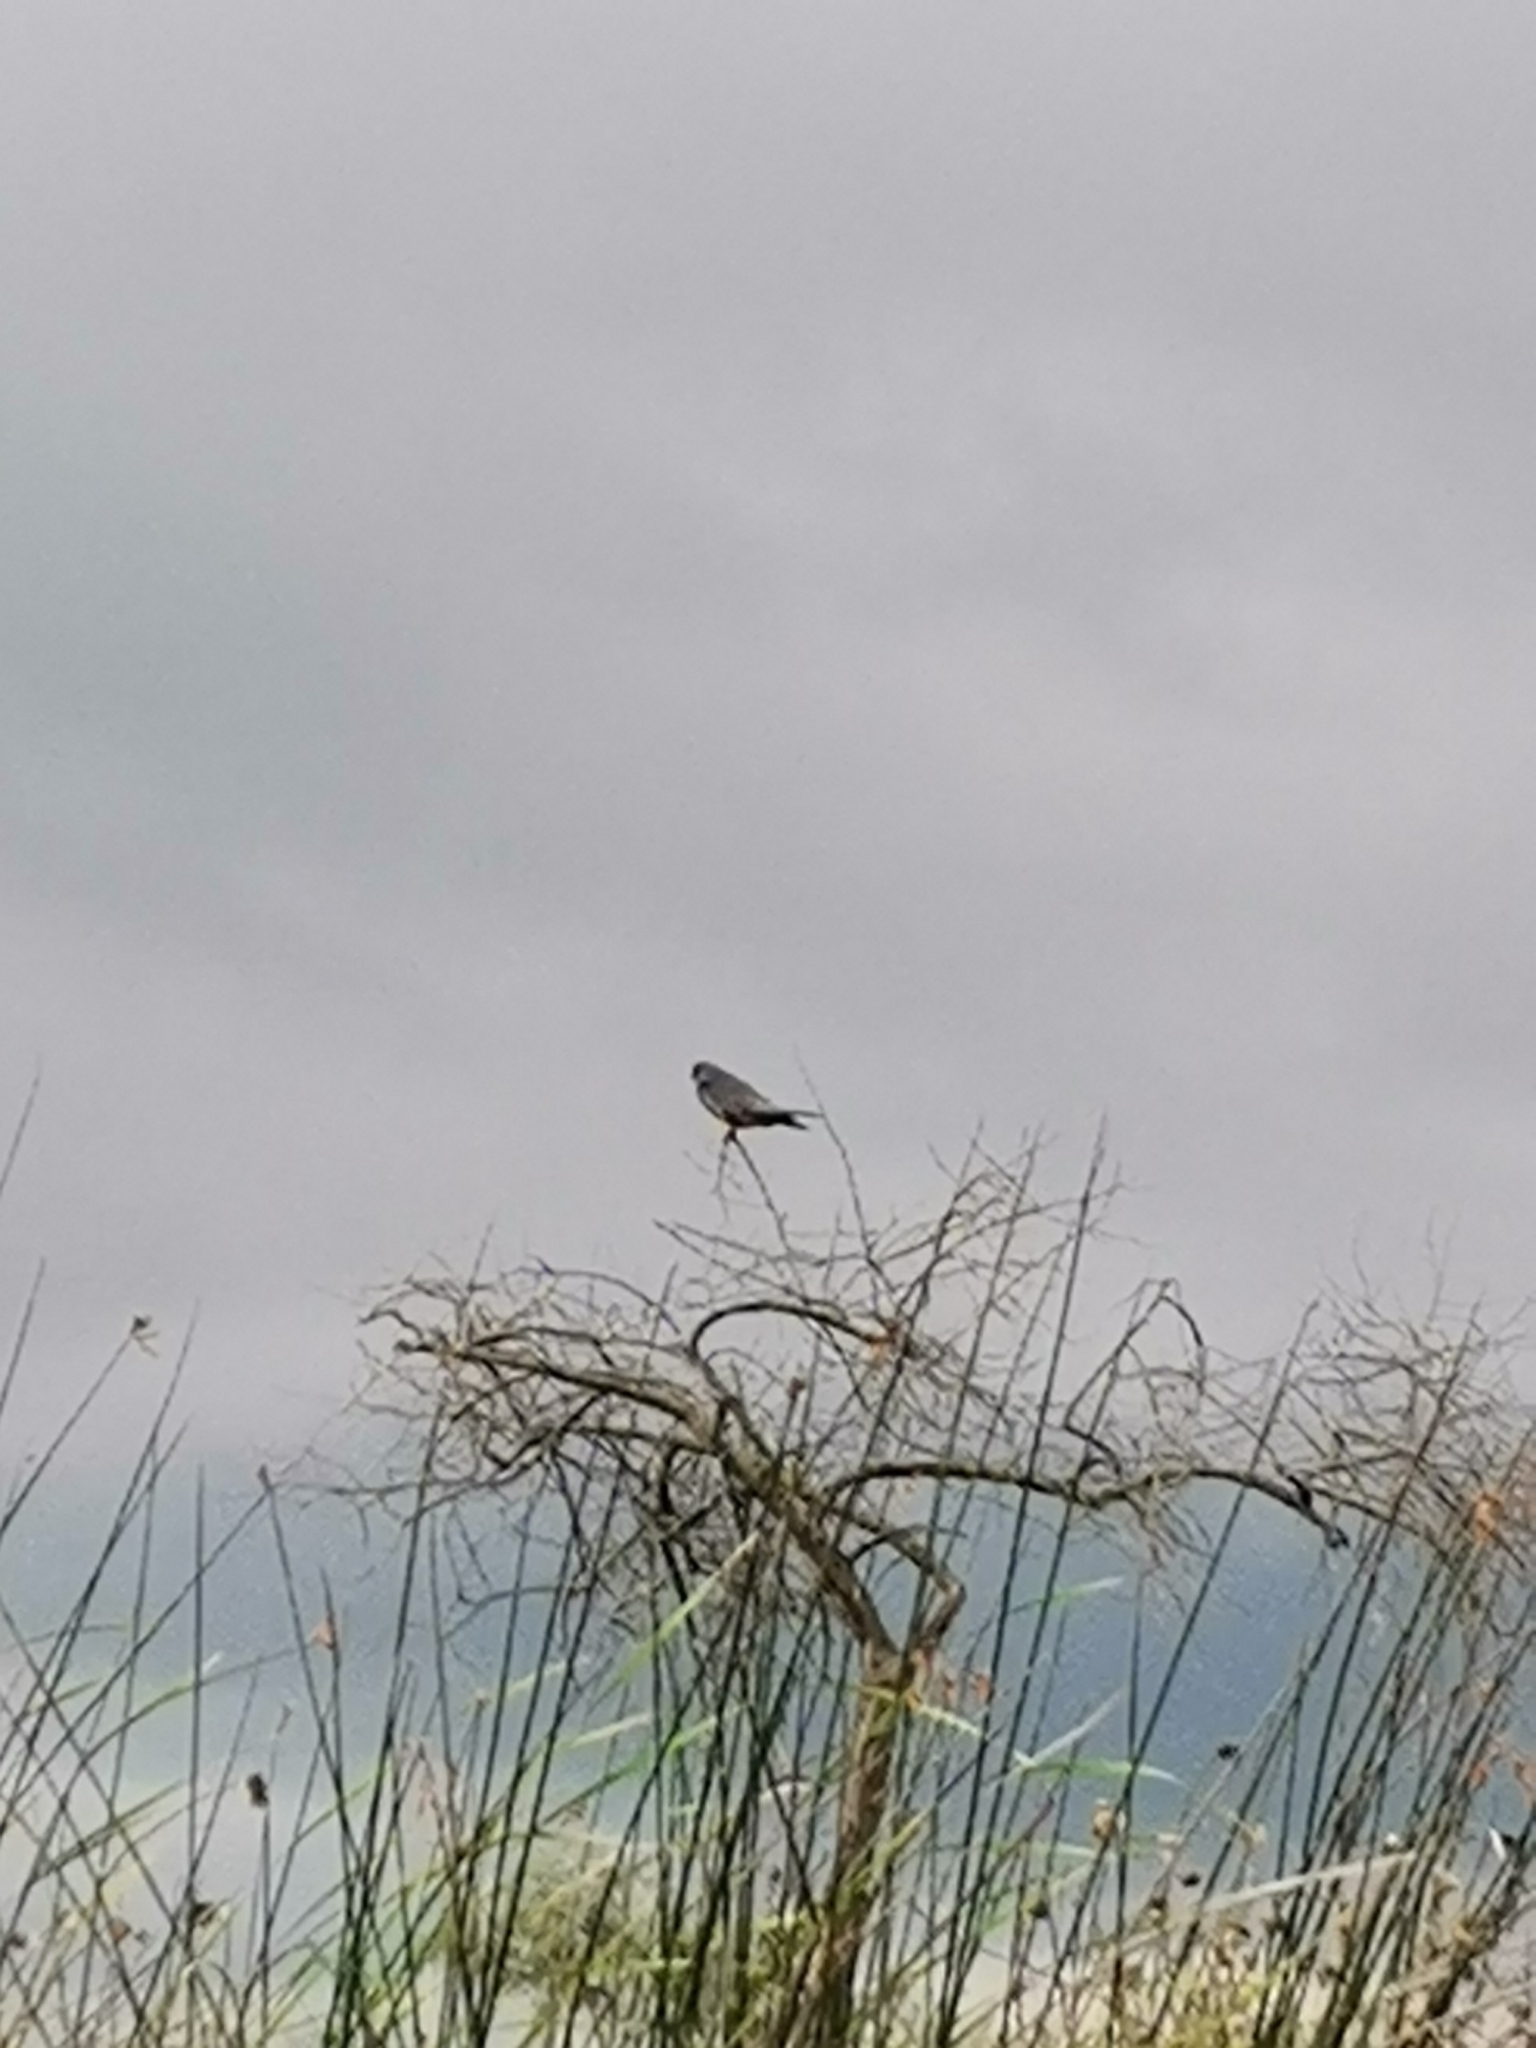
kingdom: Animalia
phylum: Chordata
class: Aves
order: Falconiformes
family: Falconidae
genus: Falco
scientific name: Falco vespertinus
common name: Red-footed falcon
